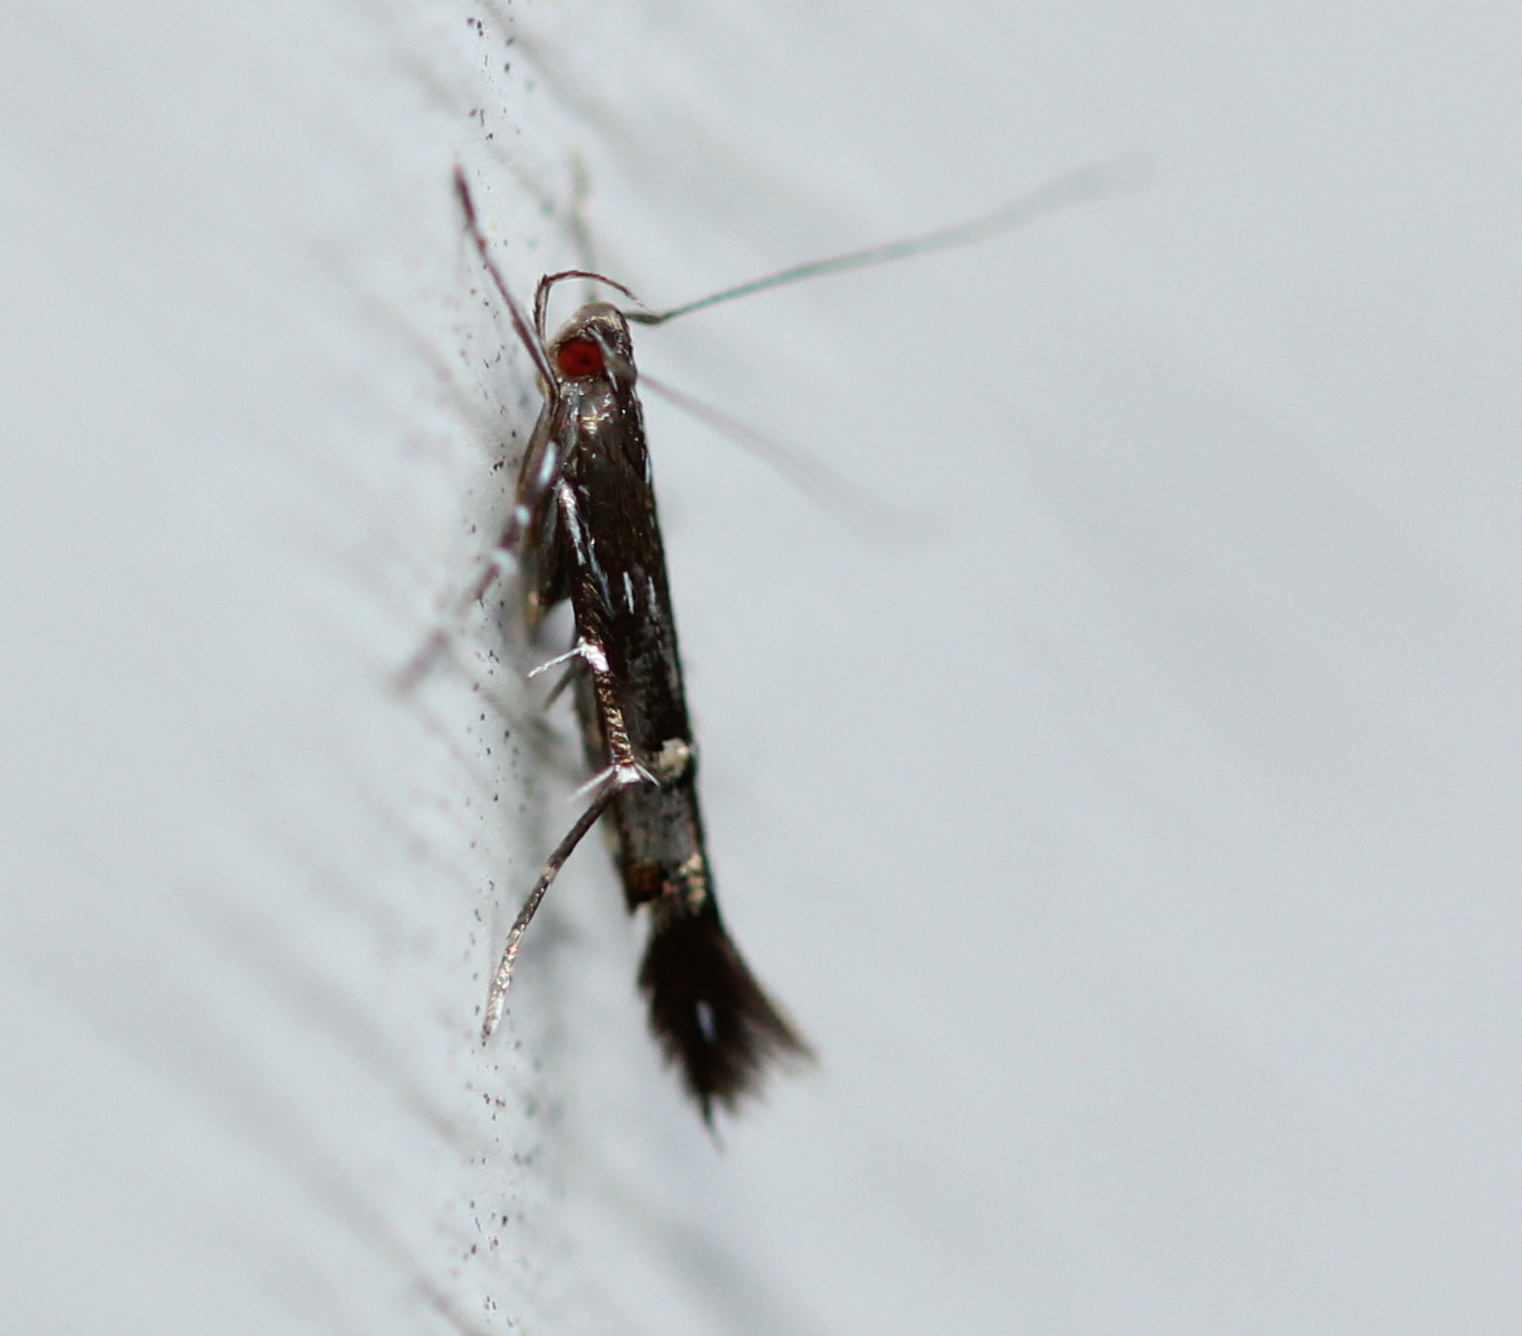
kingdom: Animalia
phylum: Arthropoda
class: Insecta
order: Lepidoptera
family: Cosmopterigidae
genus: Cosmopterix
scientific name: Cosmopterix pulchrimella
